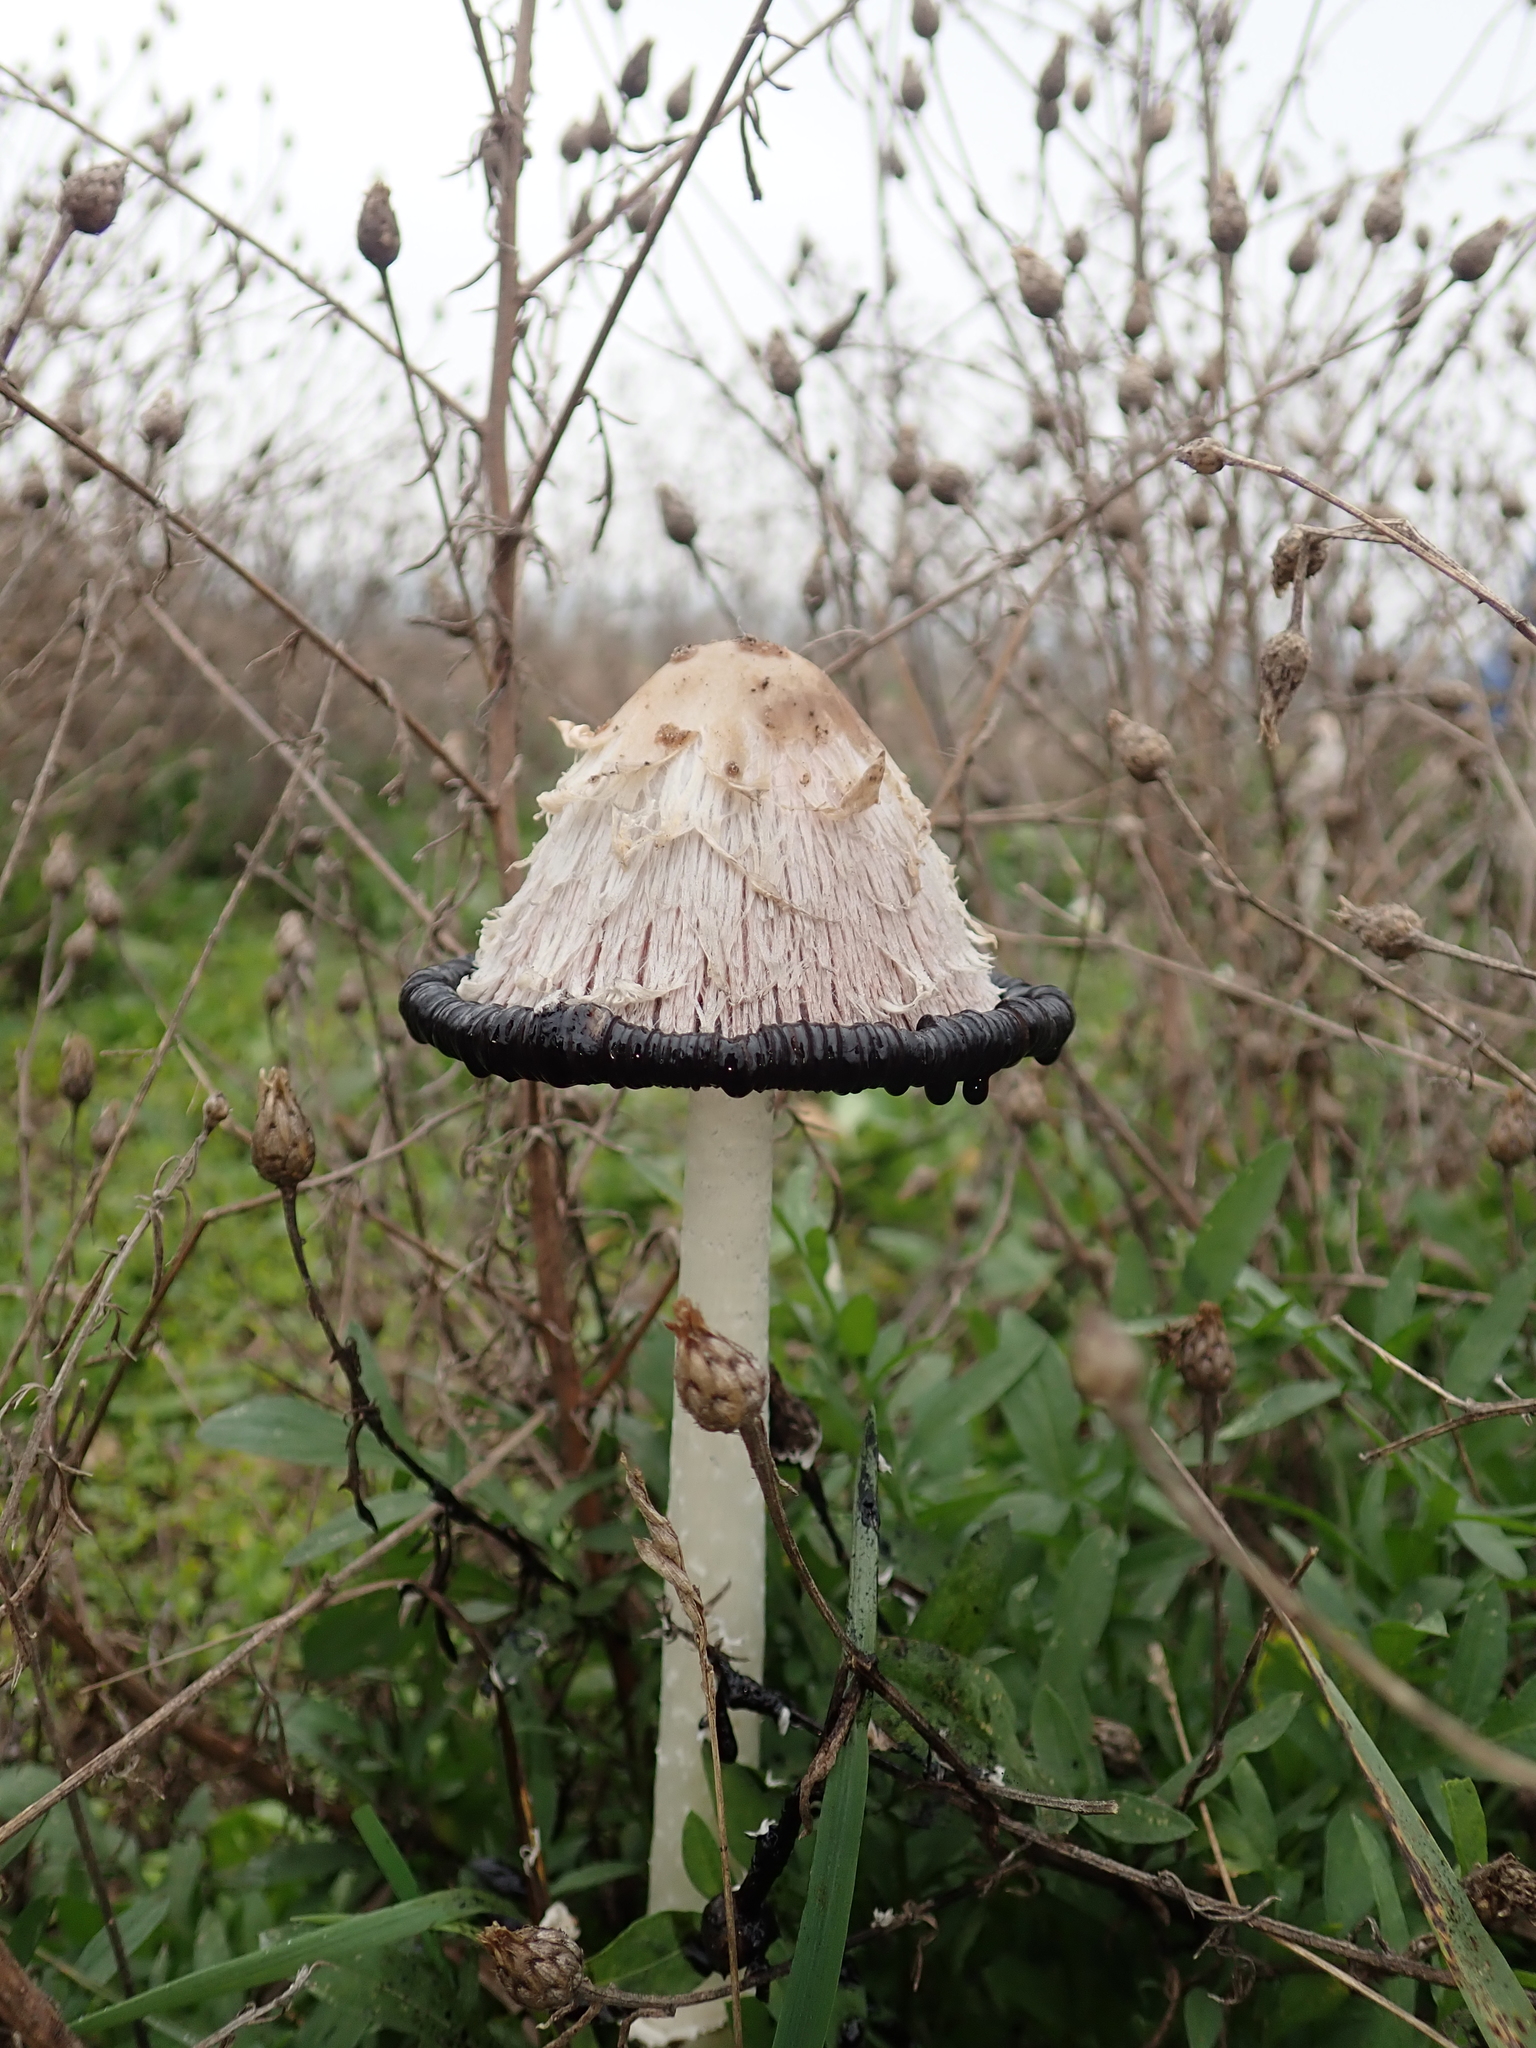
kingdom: Fungi
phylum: Basidiomycota
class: Agaricomycetes
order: Agaricales
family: Agaricaceae
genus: Coprinus
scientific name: Coprinus comatus
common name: Lawyer's wig
